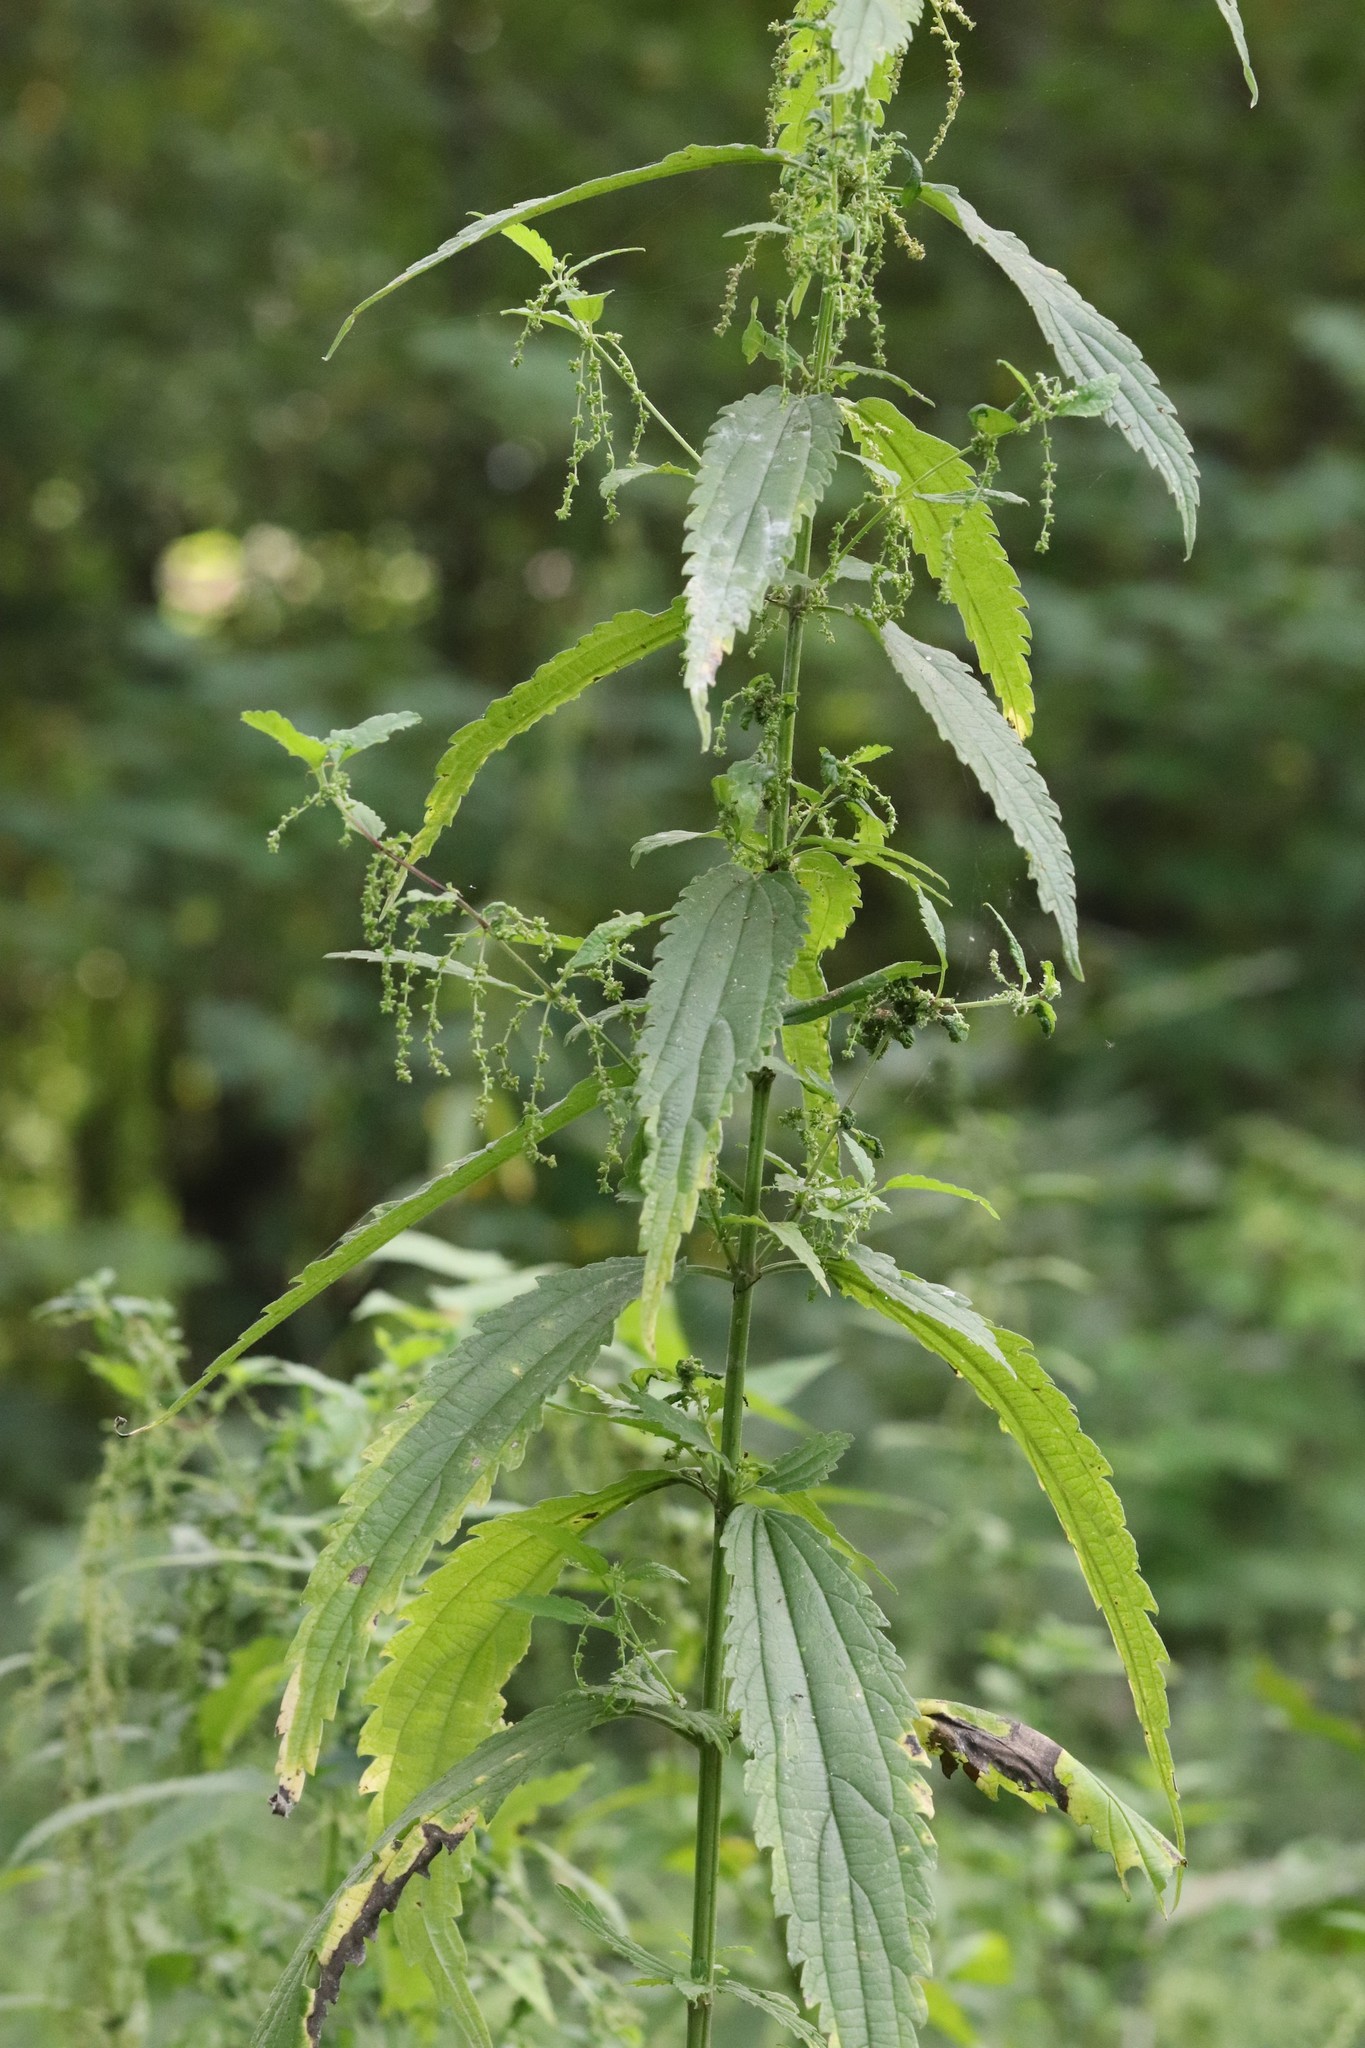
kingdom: Plantae
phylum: Tracheophyta
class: Magnoliopsida
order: Rosales
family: Urticaceae
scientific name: Urticaceae
